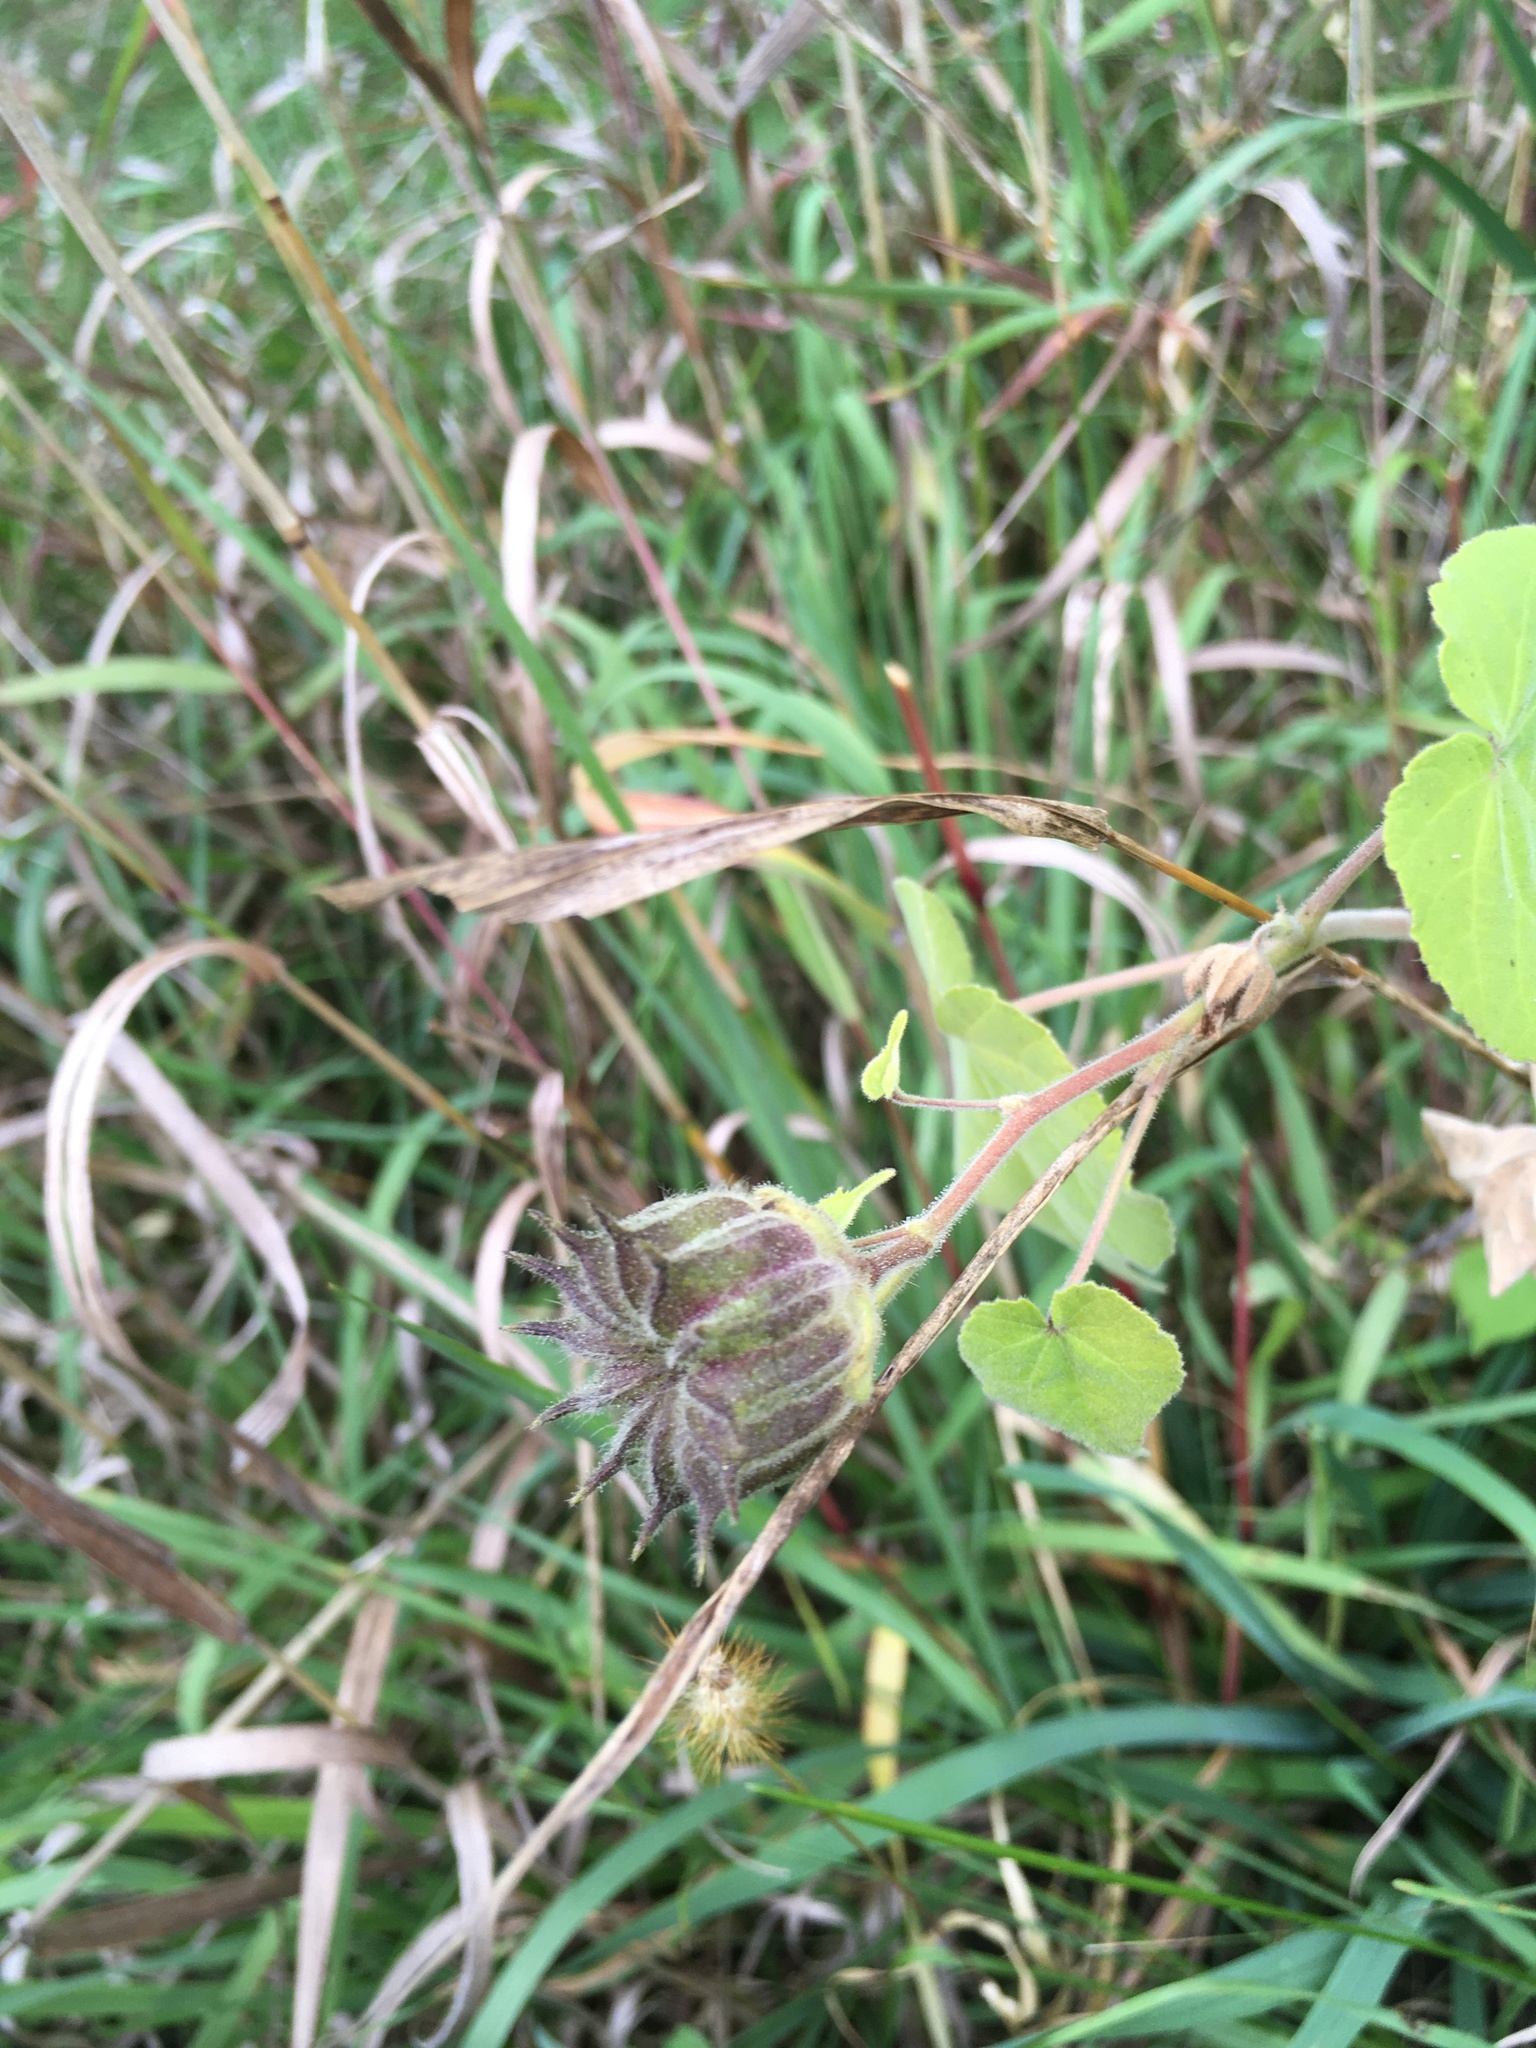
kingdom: Plantae
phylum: Tracheophyta
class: Magnoliopsida
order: Malvales
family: Malvaceae
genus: Abutilon
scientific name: Abutilon theophrasti
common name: Velvetleaf
